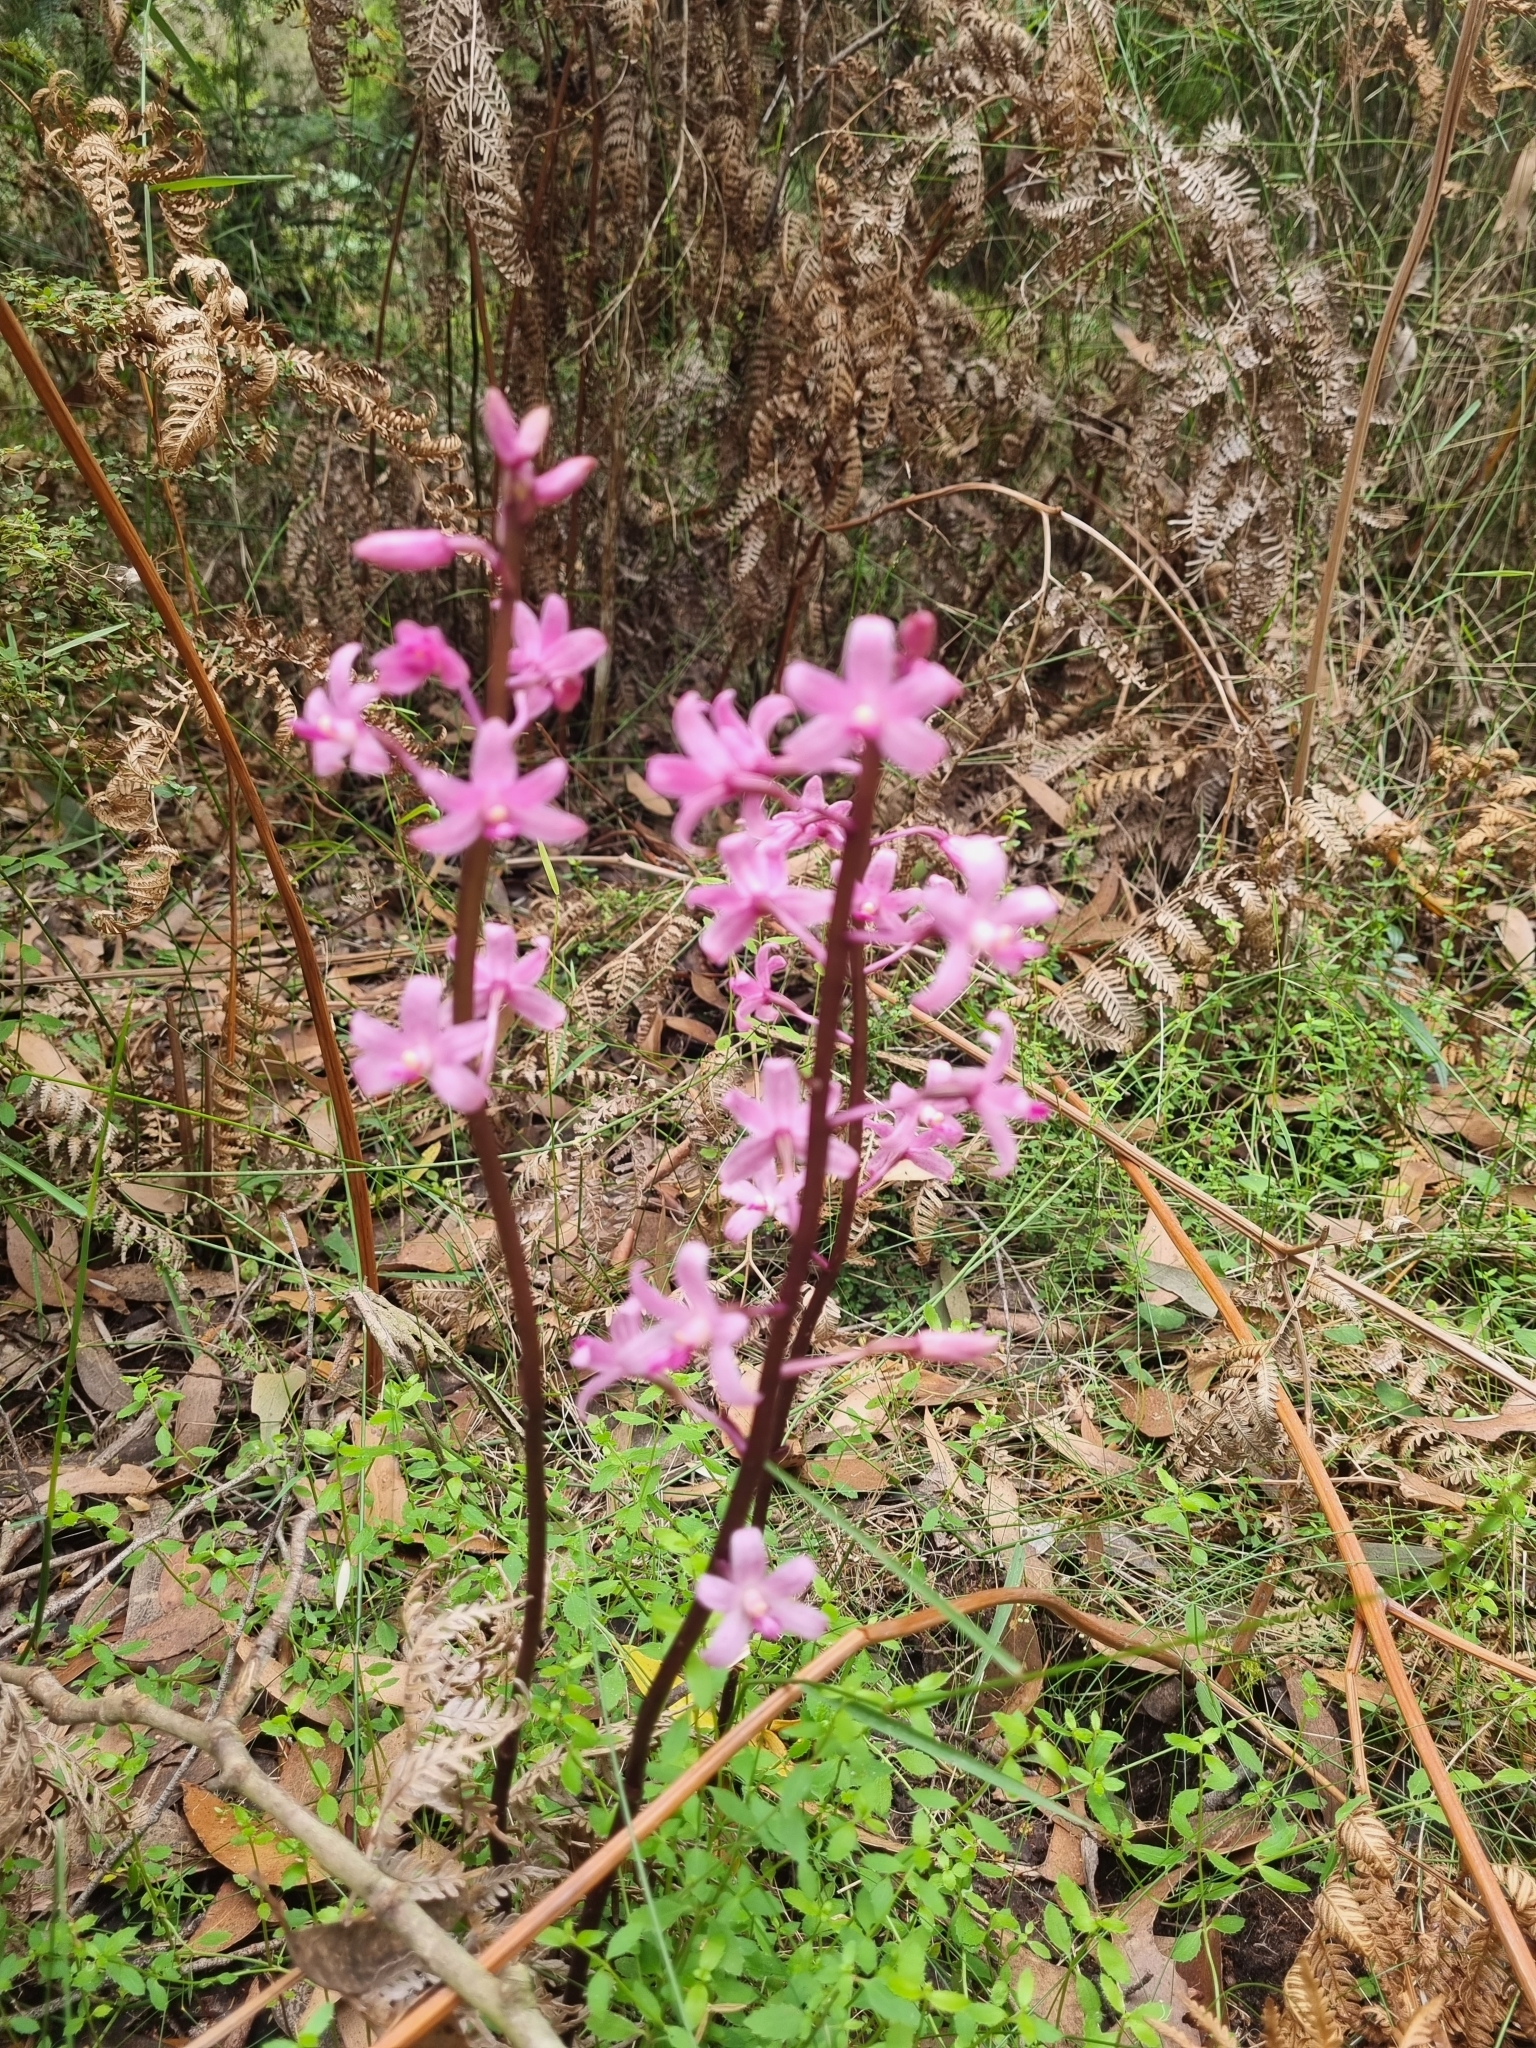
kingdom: Plantae
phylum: Tracheophyta
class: Liliopsida
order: Asparagales
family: Orchidaceae
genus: Dipodium
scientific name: Dipodium roseum
